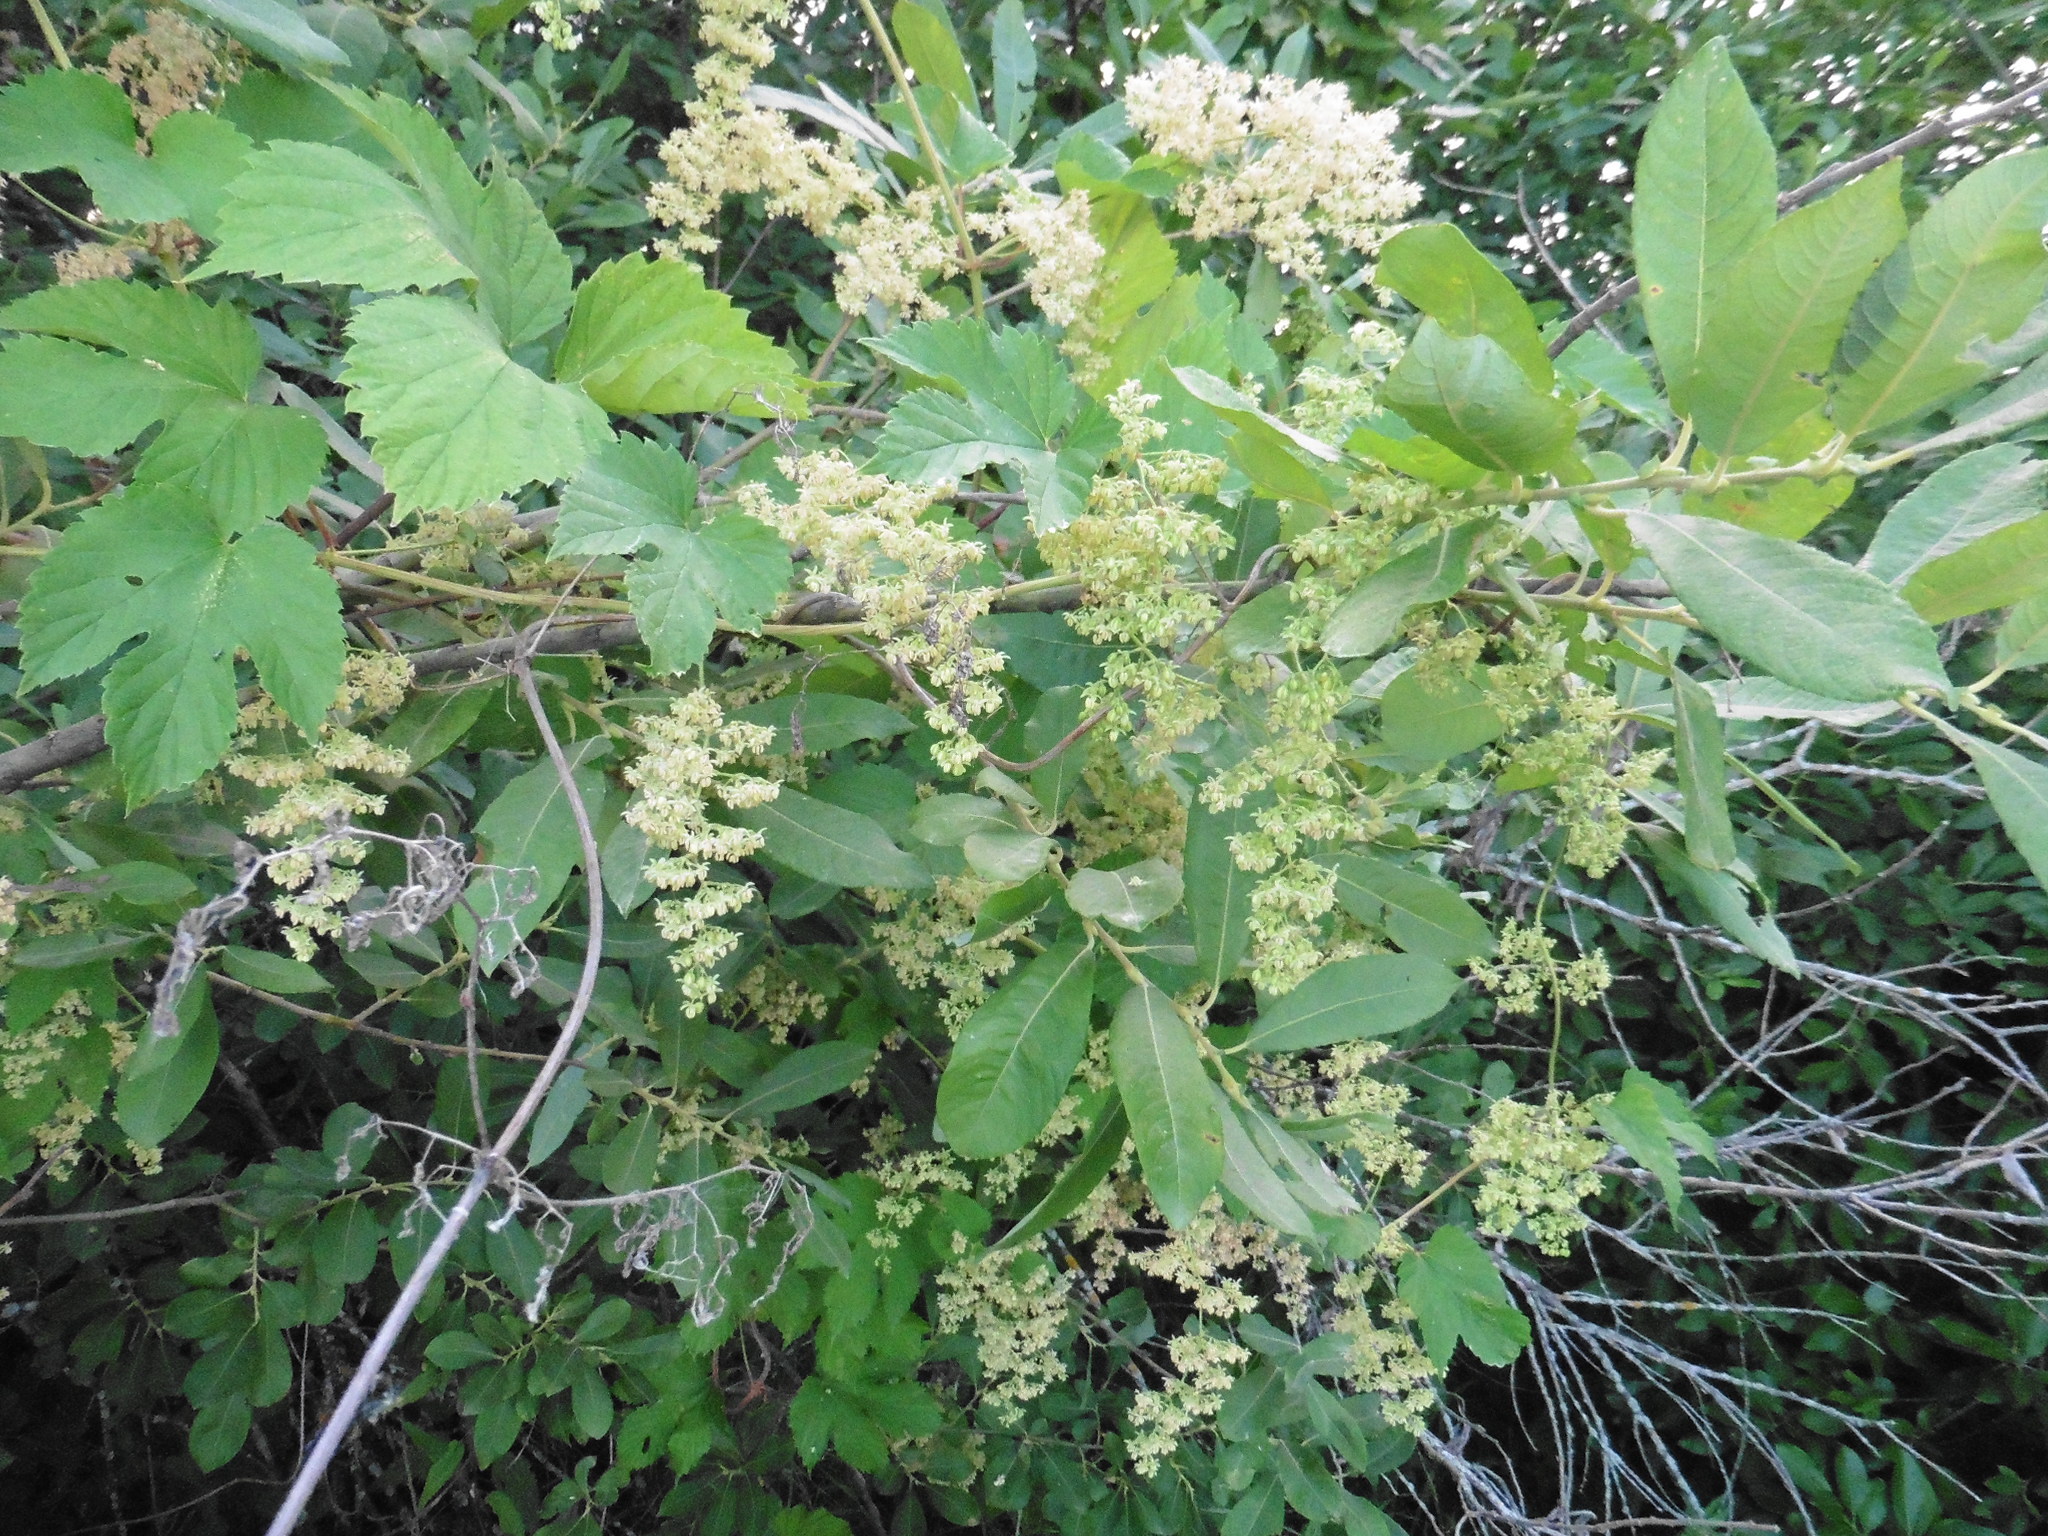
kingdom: Plantae
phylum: Tracheophyta
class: Magnoliopsida
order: Rosales
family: Cannabaceae
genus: Humulus
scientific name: Humulus lupulus
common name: Hop
